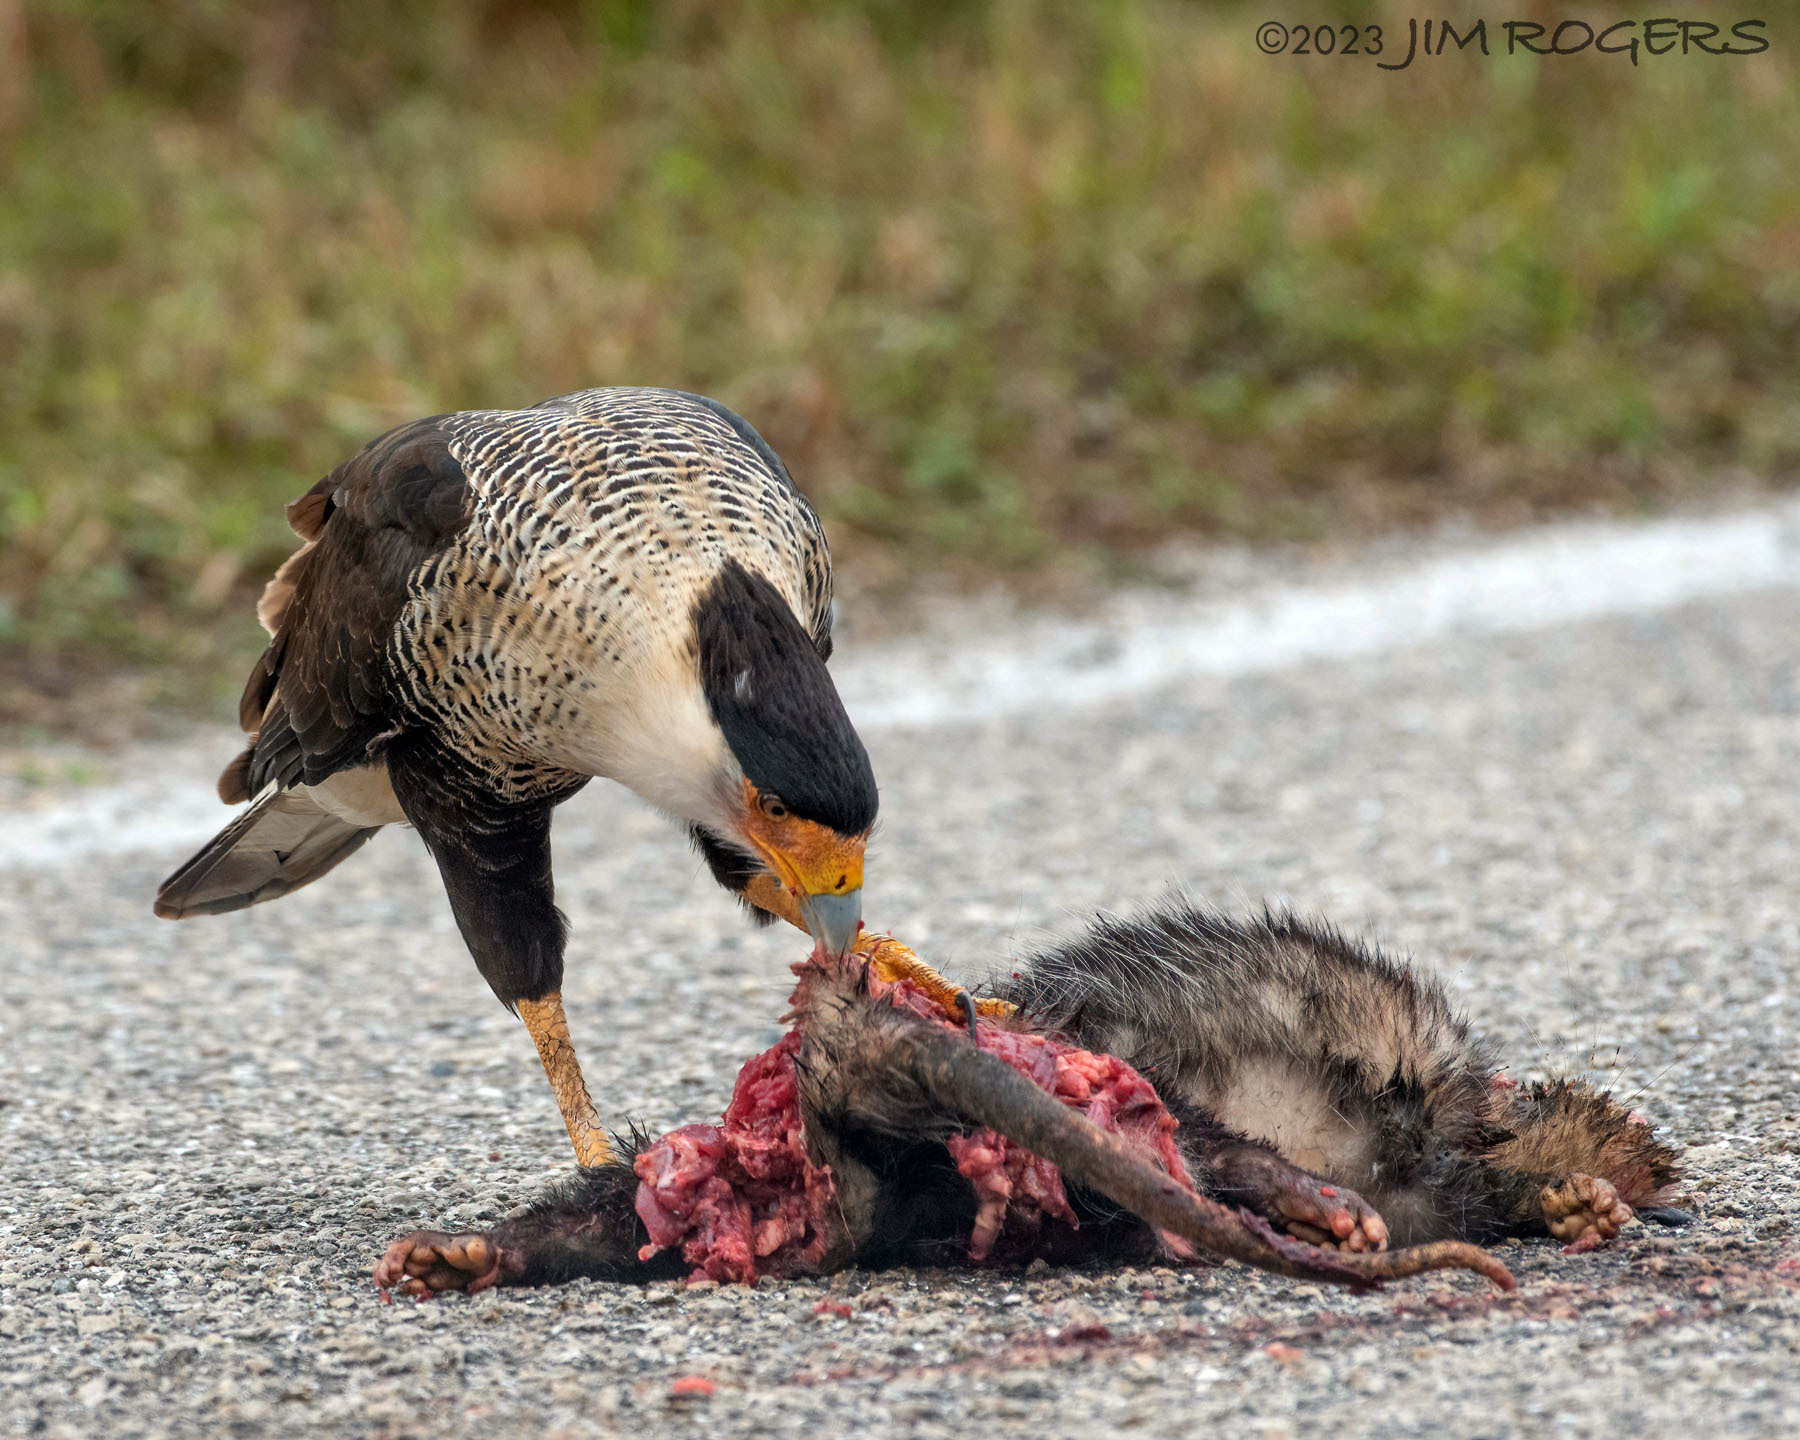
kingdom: Animalia
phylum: Chordata
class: Aves
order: Falconiformes
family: Falconidae
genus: Caracara
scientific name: Caracara plancus
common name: Southern caracara
